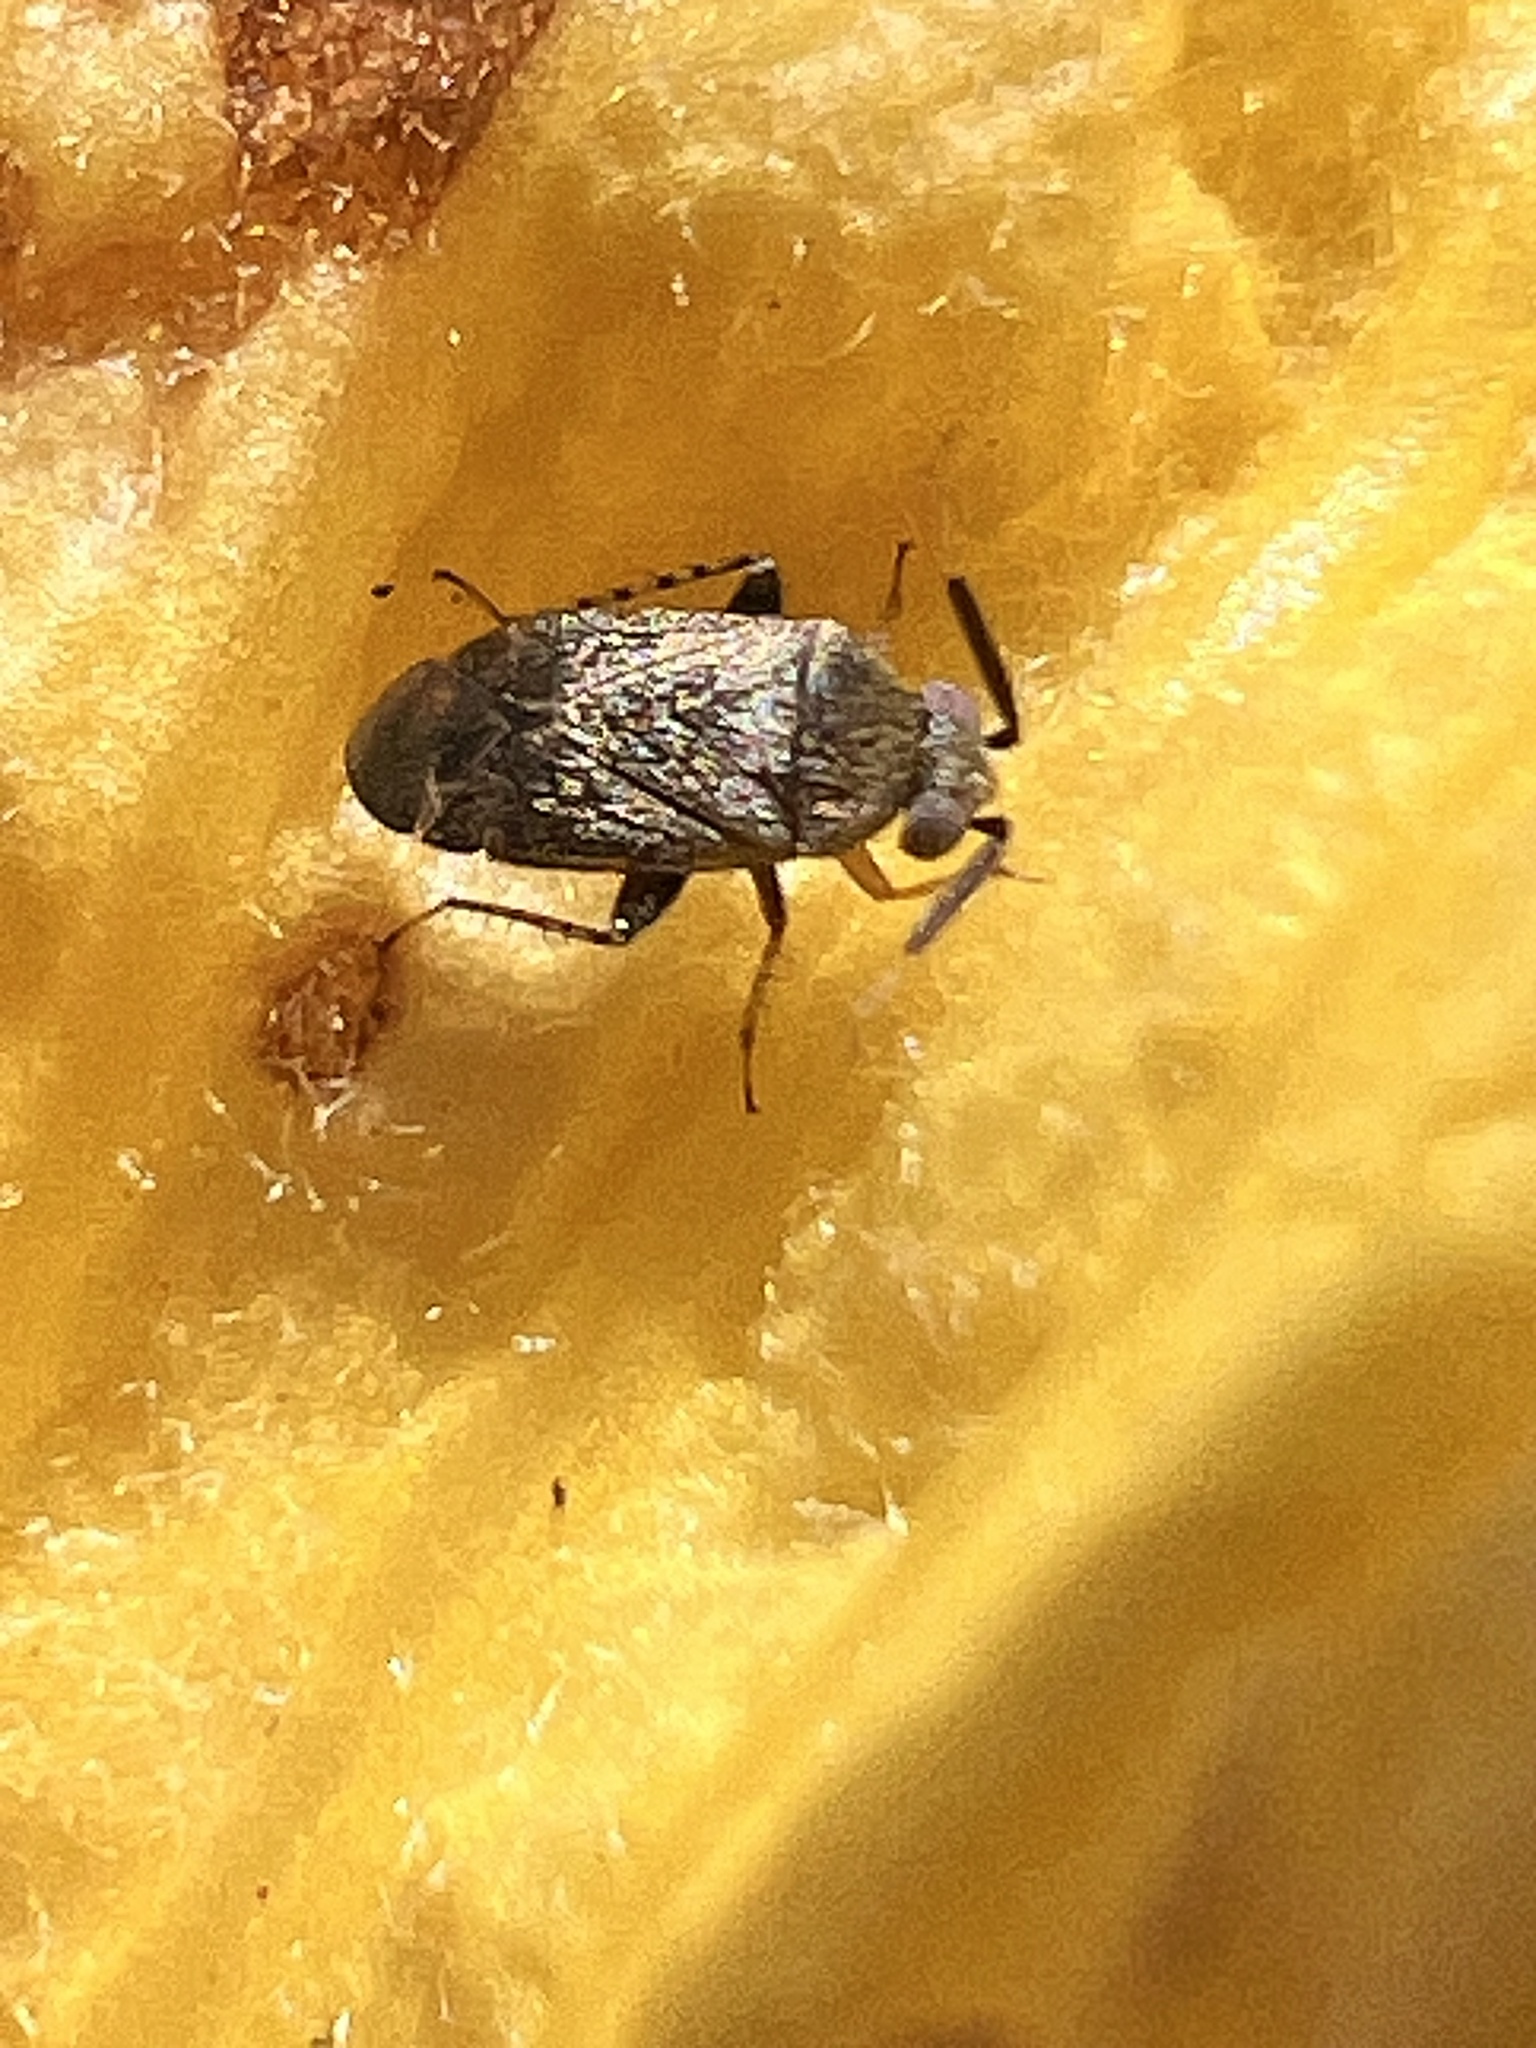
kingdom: Animalia
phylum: Arthropoda
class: Insecta
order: Hemiptera
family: Miridae
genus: Rhinacloa
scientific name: Rhinacloa forticornis
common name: Brown cotton mirid
